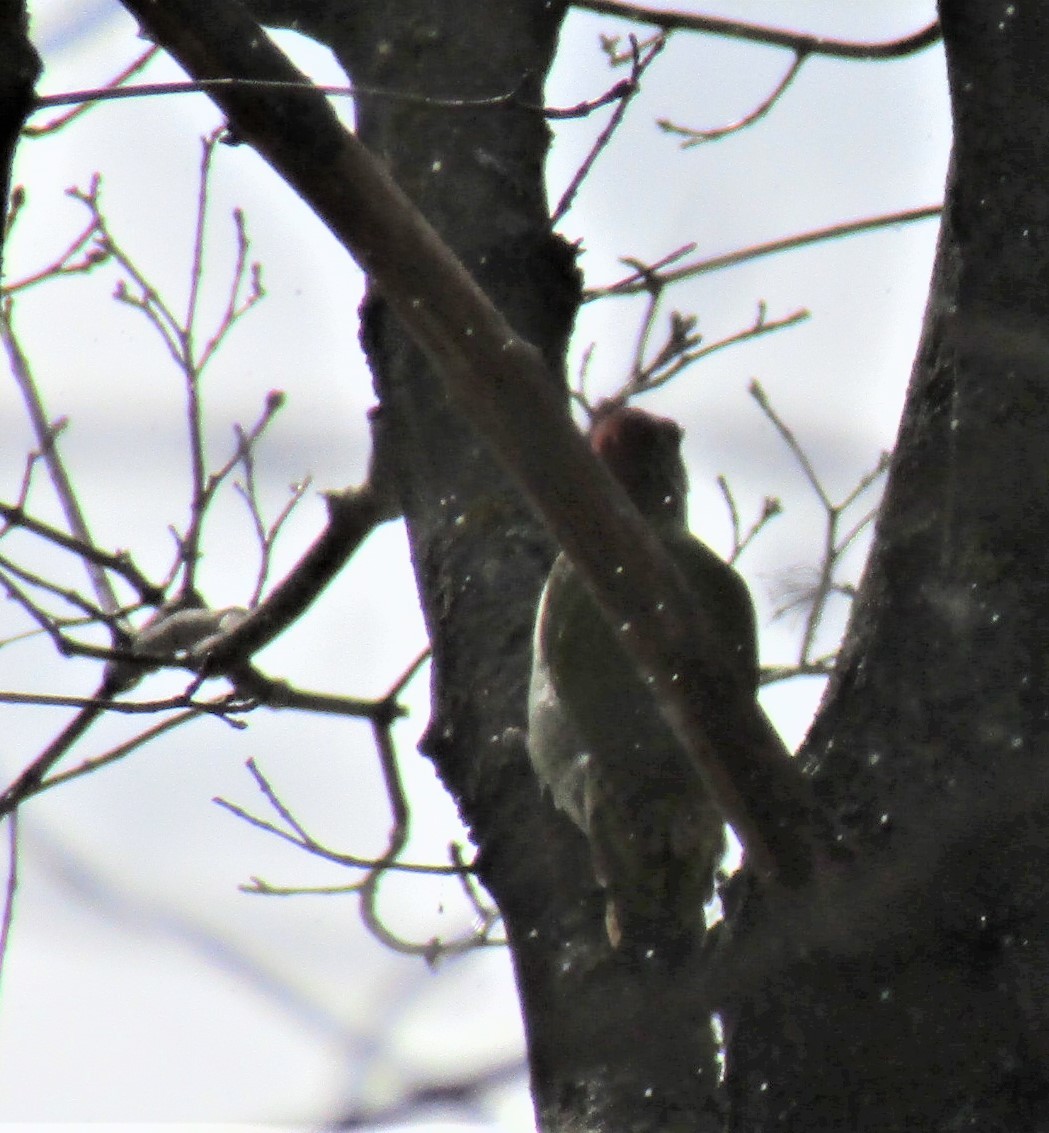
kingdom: Animalia
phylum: Chordata
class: Aves
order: Piciformes
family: Picidae
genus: Picus
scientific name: Picus viridis
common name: European green woodpecker
